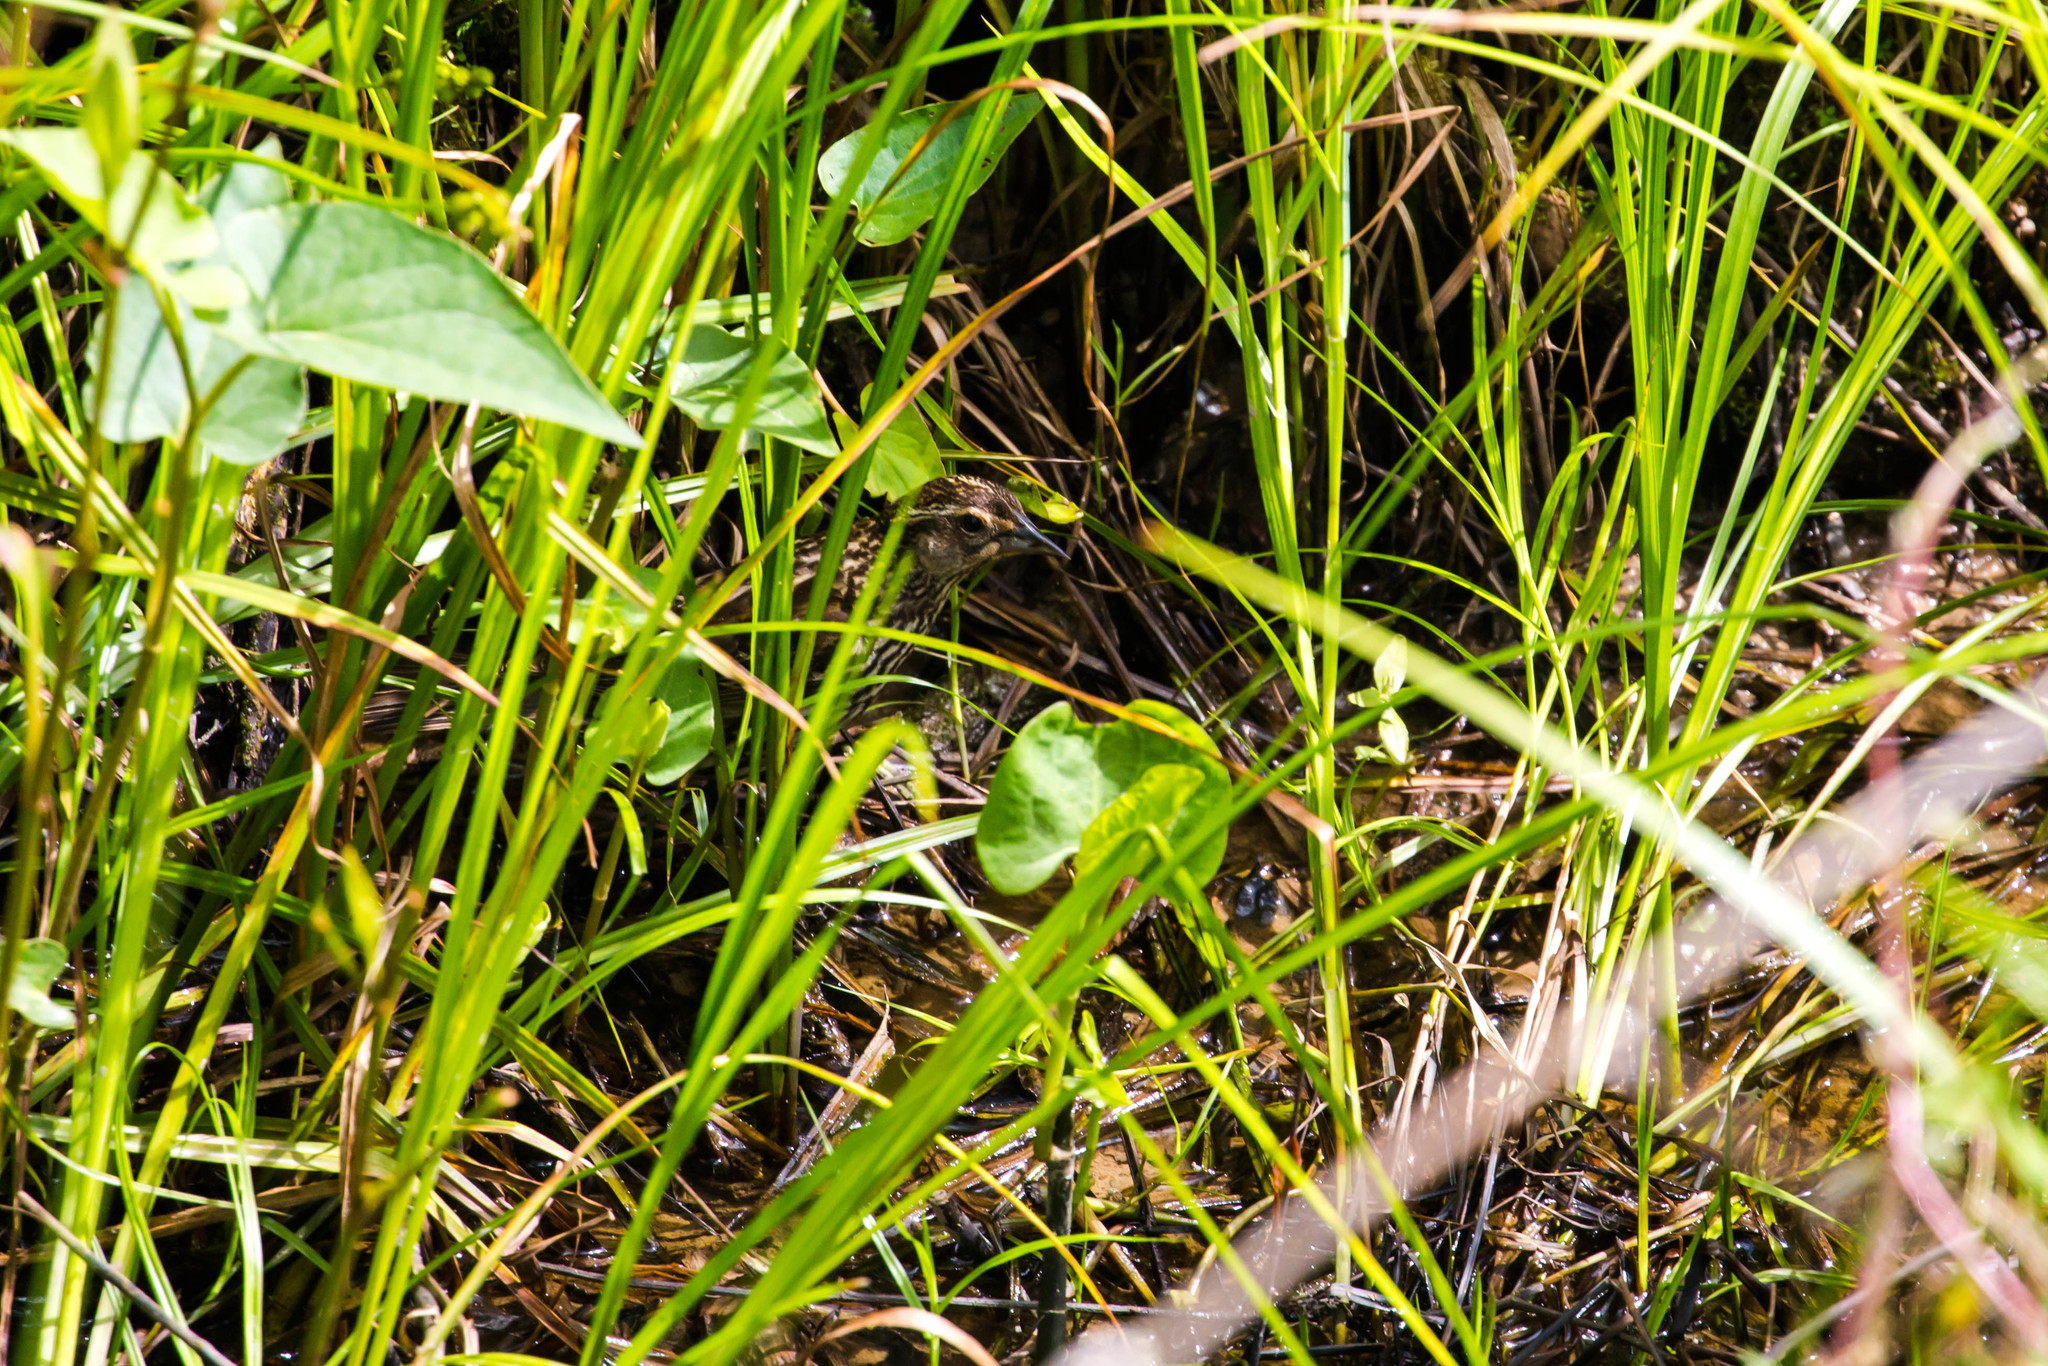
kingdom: Animalia
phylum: Chordata
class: Aves
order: Passeriformes
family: Icteridae
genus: Agelaius
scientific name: Agelaius phoeniceus
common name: Red-winged blackbird
